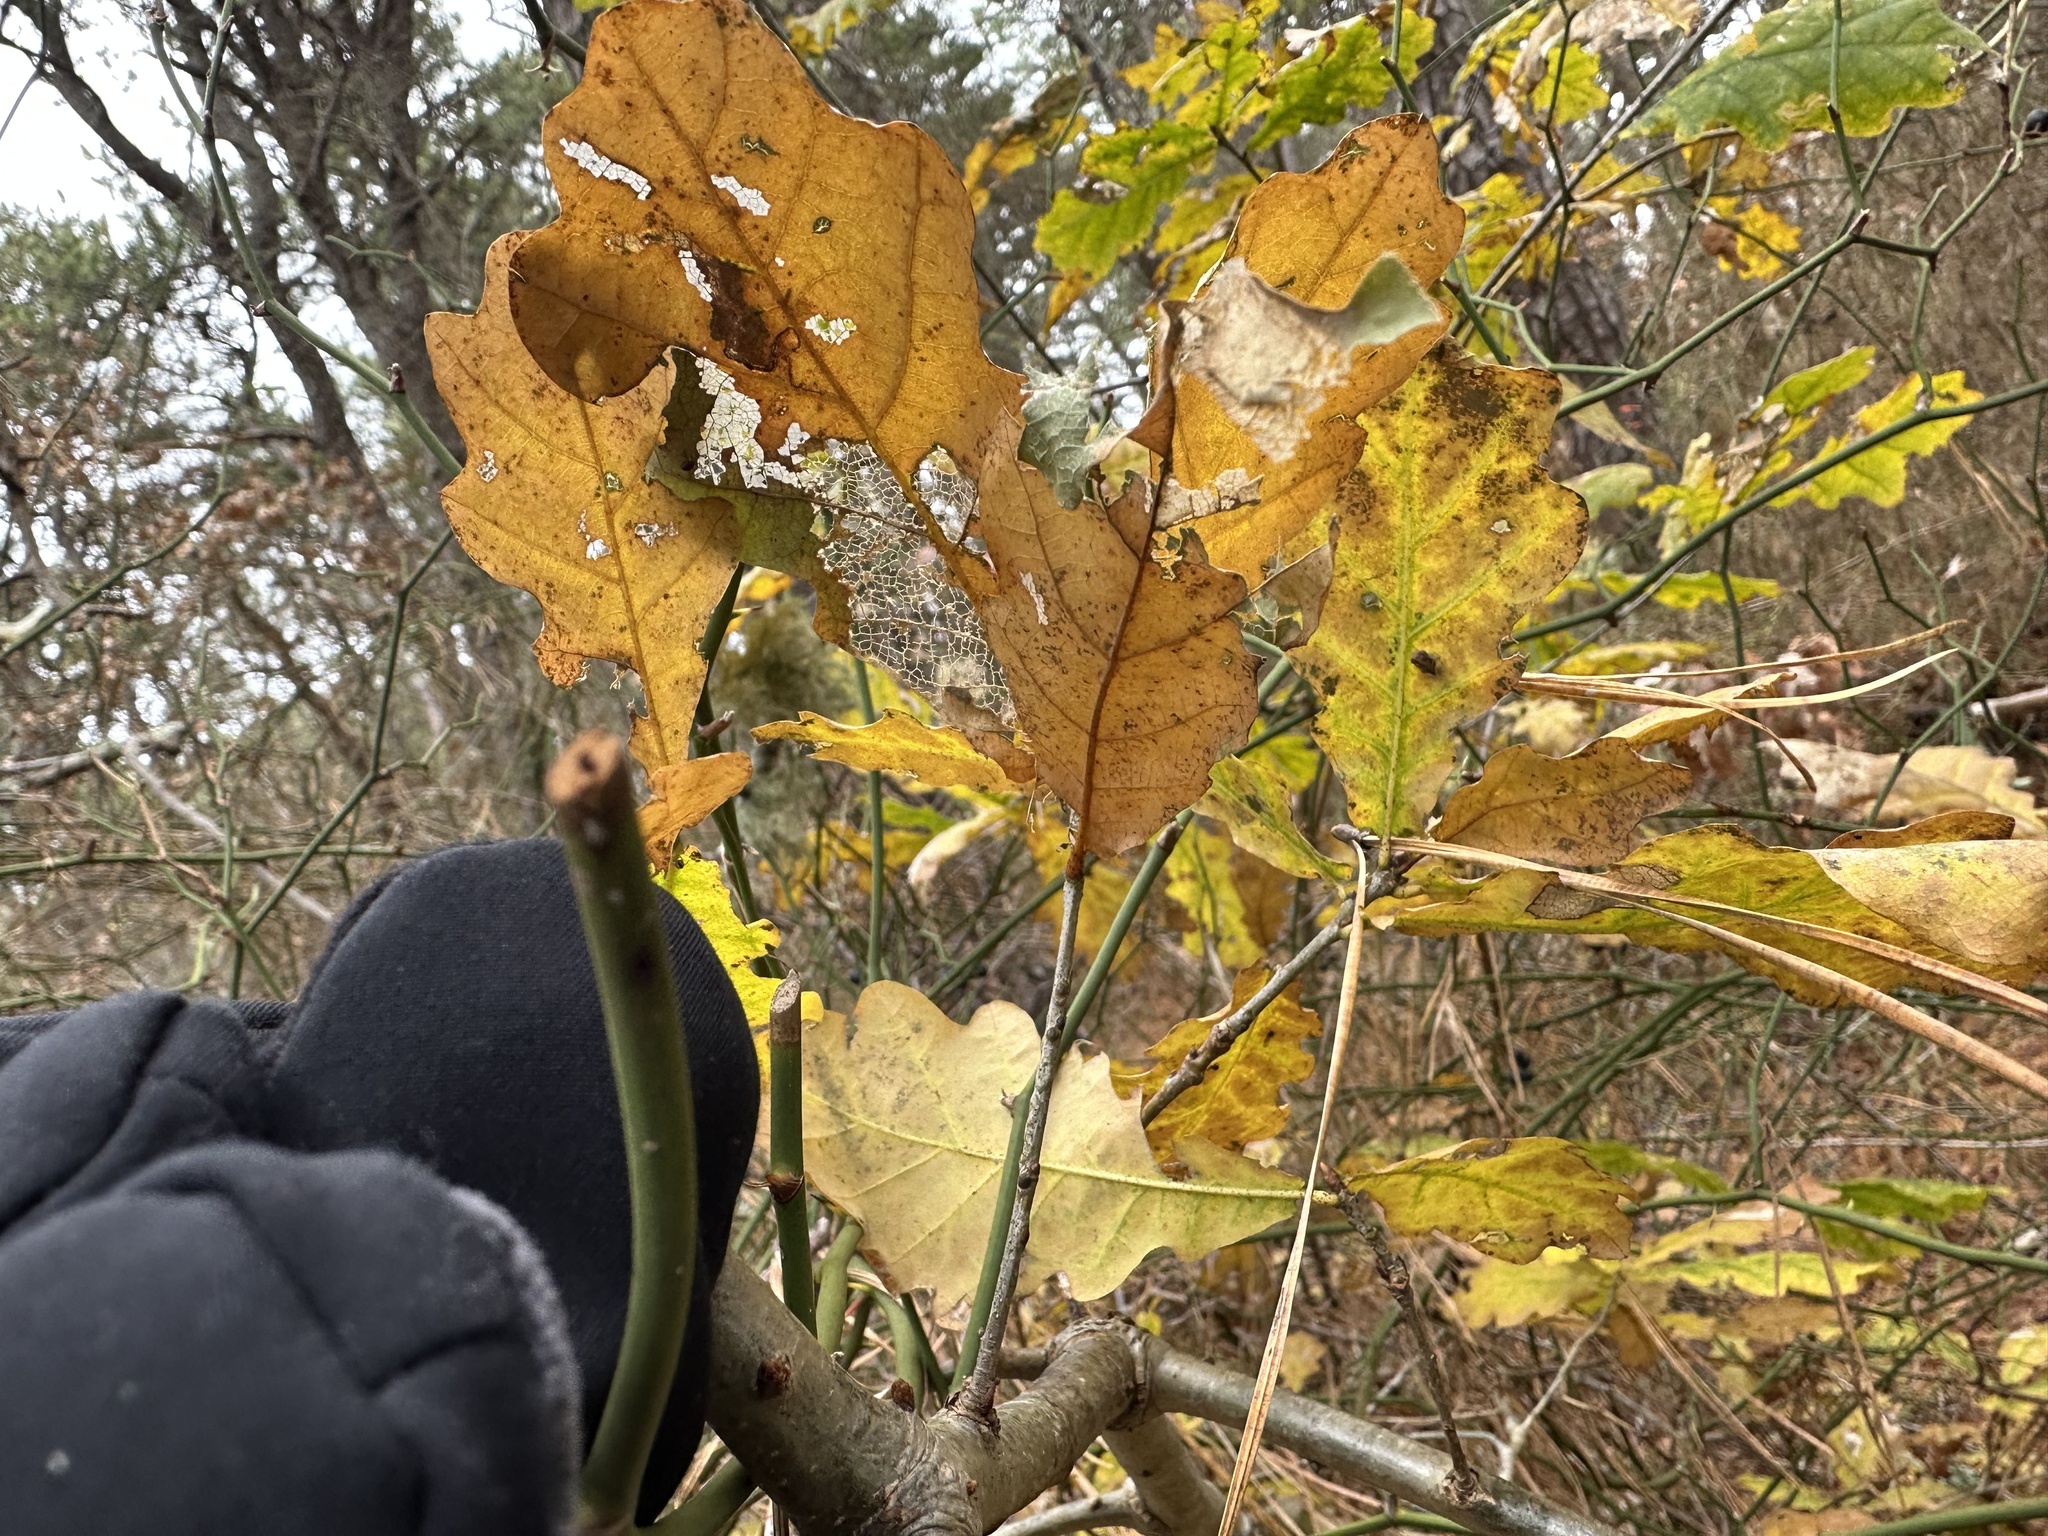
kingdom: Plantae
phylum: Tracheophyta
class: Magnoliopsida
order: Fagales
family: Fagaceae
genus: Quercus
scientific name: Quercus robur
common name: Pedunculate oak
